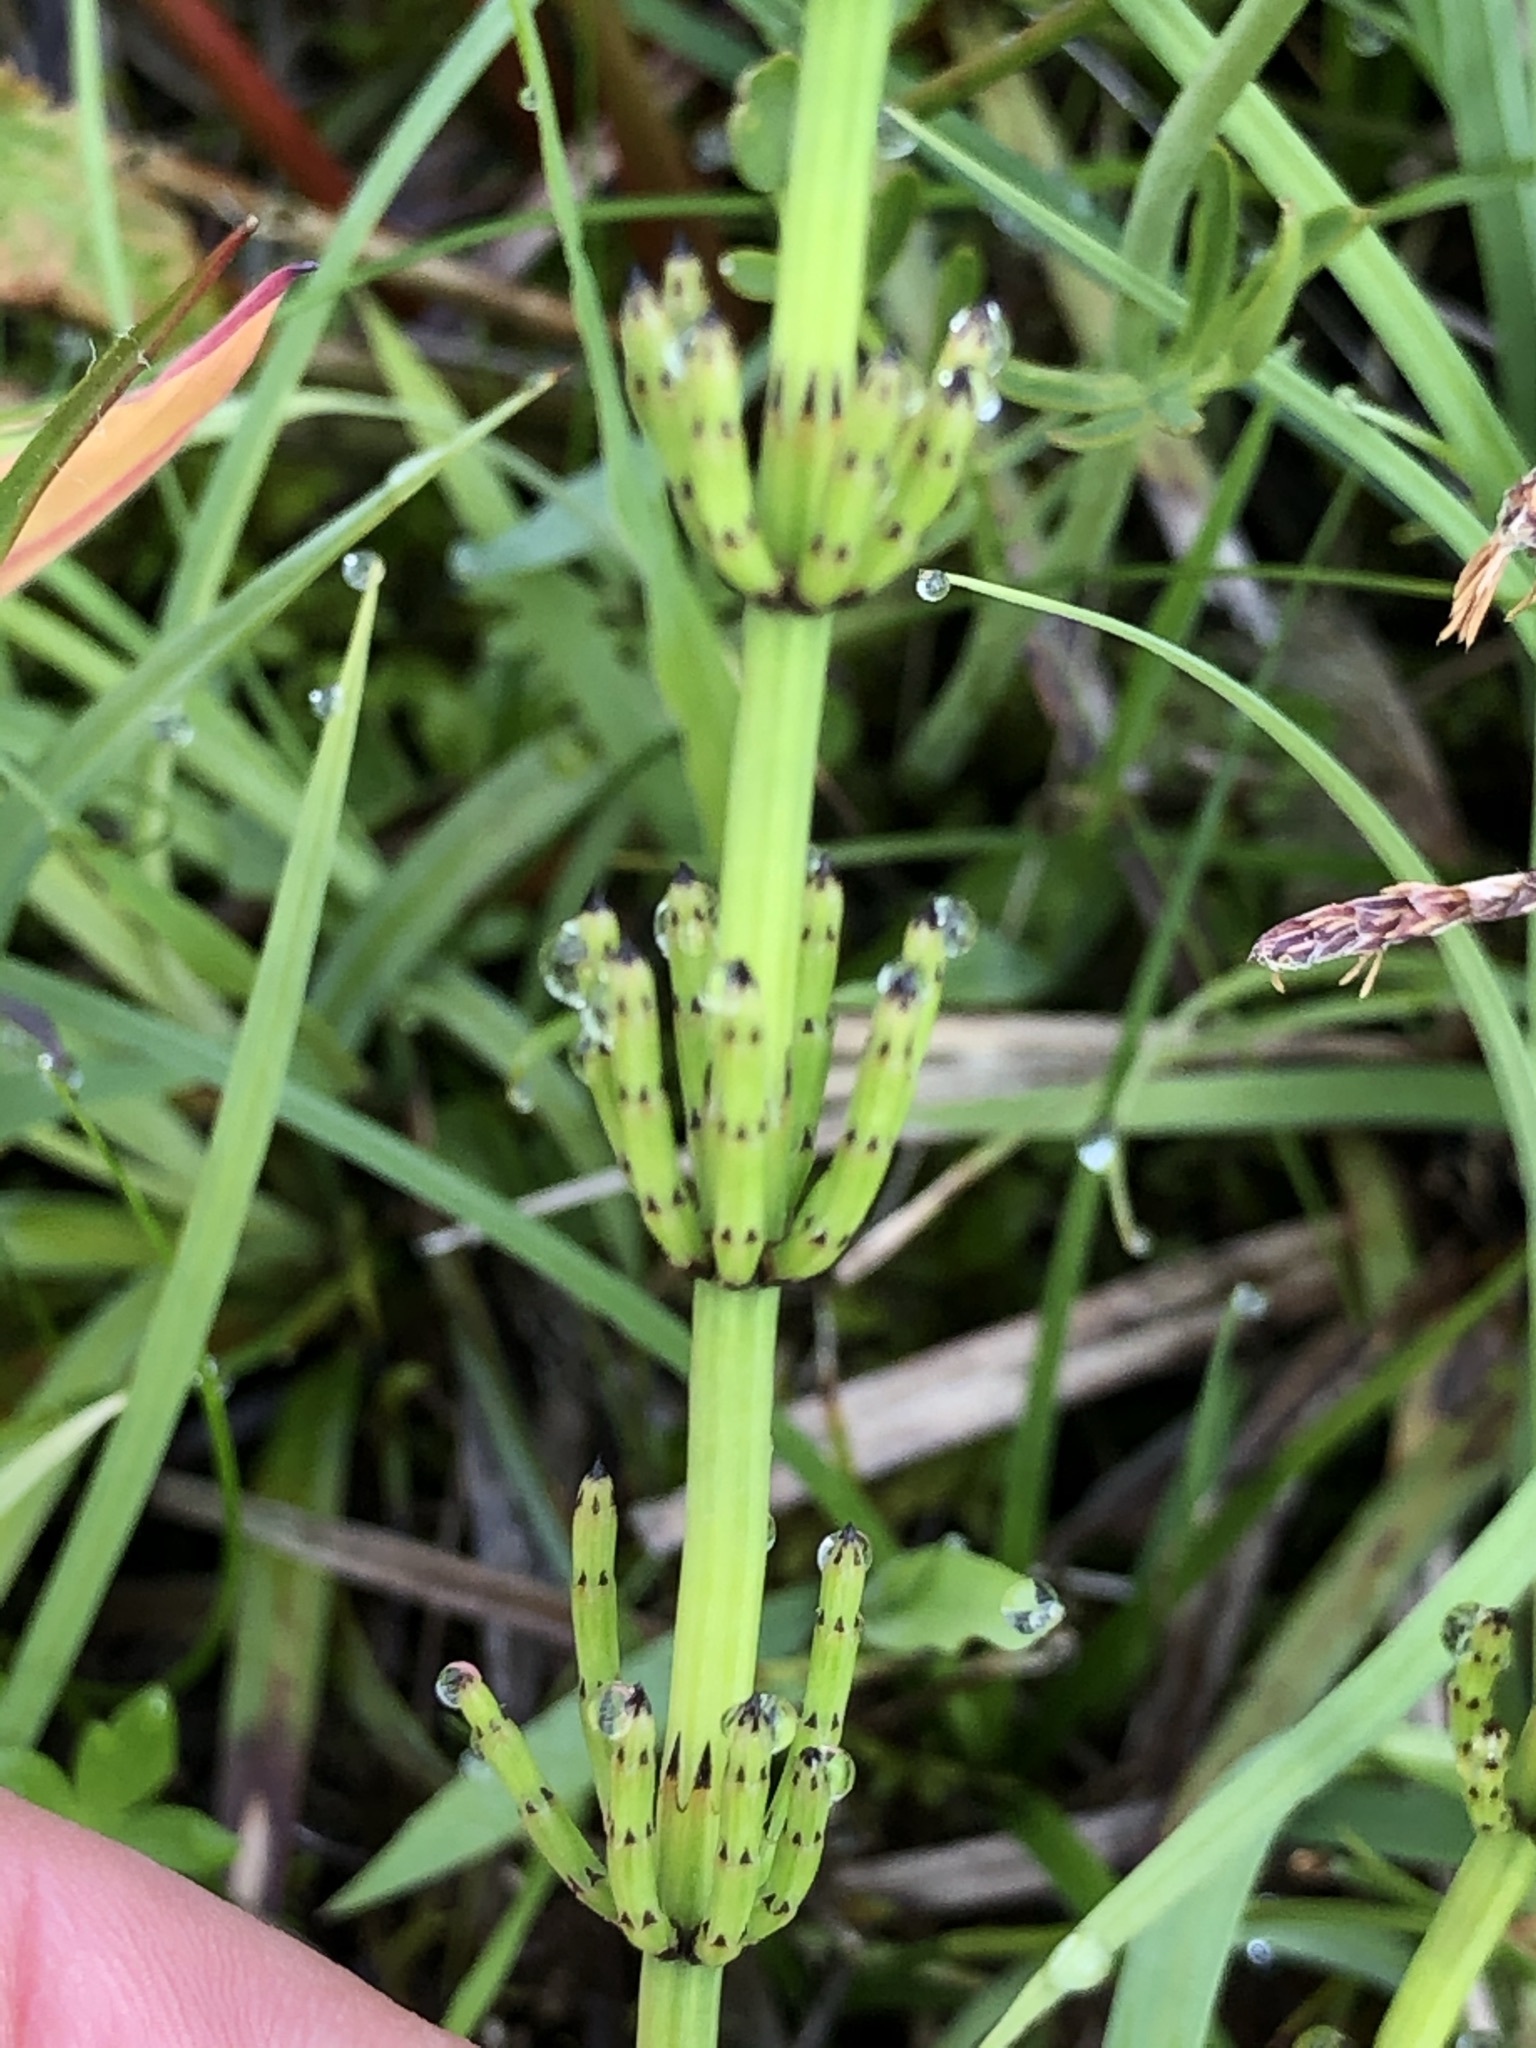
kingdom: Plantae
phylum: Tracheophyta
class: Polypodiopsida
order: Equisetales
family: Equisetaceae
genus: Equisetum
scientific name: Equisetum palustre
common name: Marsh horsetail
